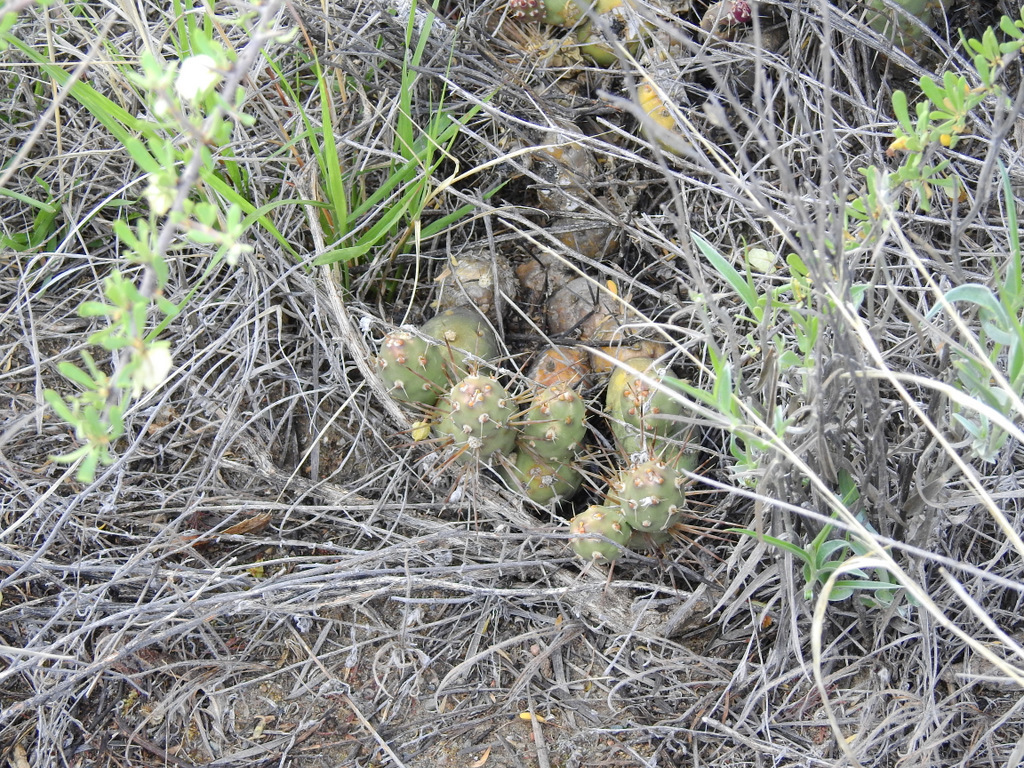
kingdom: Plantae
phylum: Tracheophyta
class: Magnoliopsida
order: Caryophyllales
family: Cactaceae
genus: Maihueniopsis
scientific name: Maihueniopsis ovata
